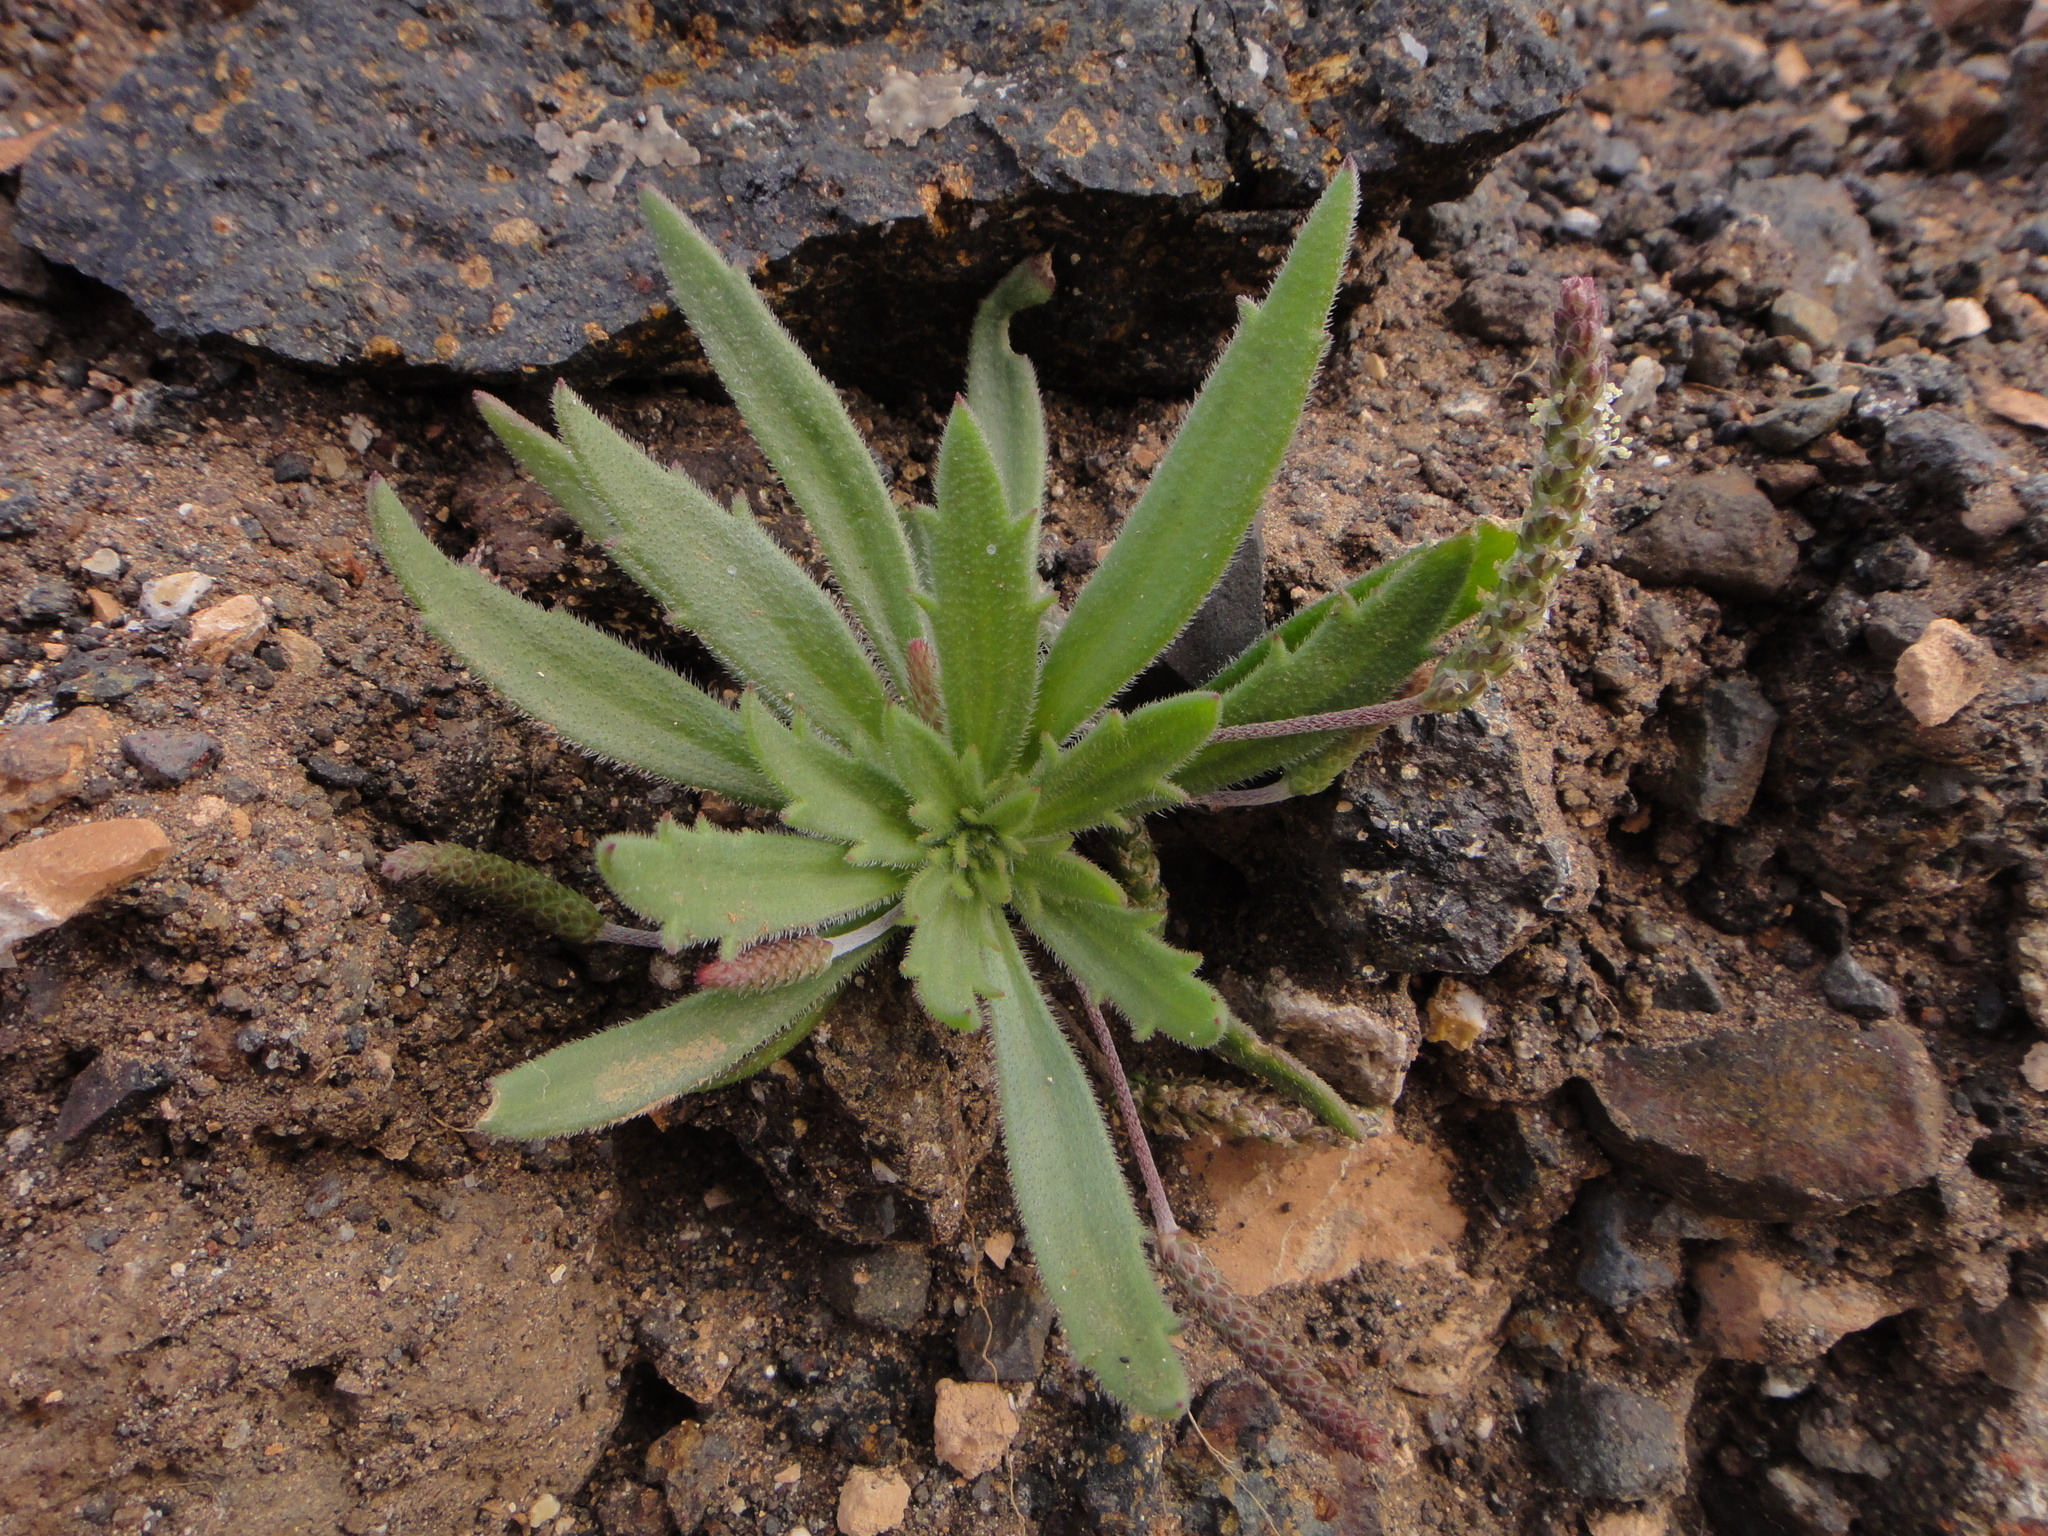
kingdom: Plantae
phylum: Tracheophyta
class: Magnoliopsida
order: Lamiales
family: Plantaginaceae
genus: Plantago
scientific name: Plantago coronopus
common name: Buck's-horn plantain
